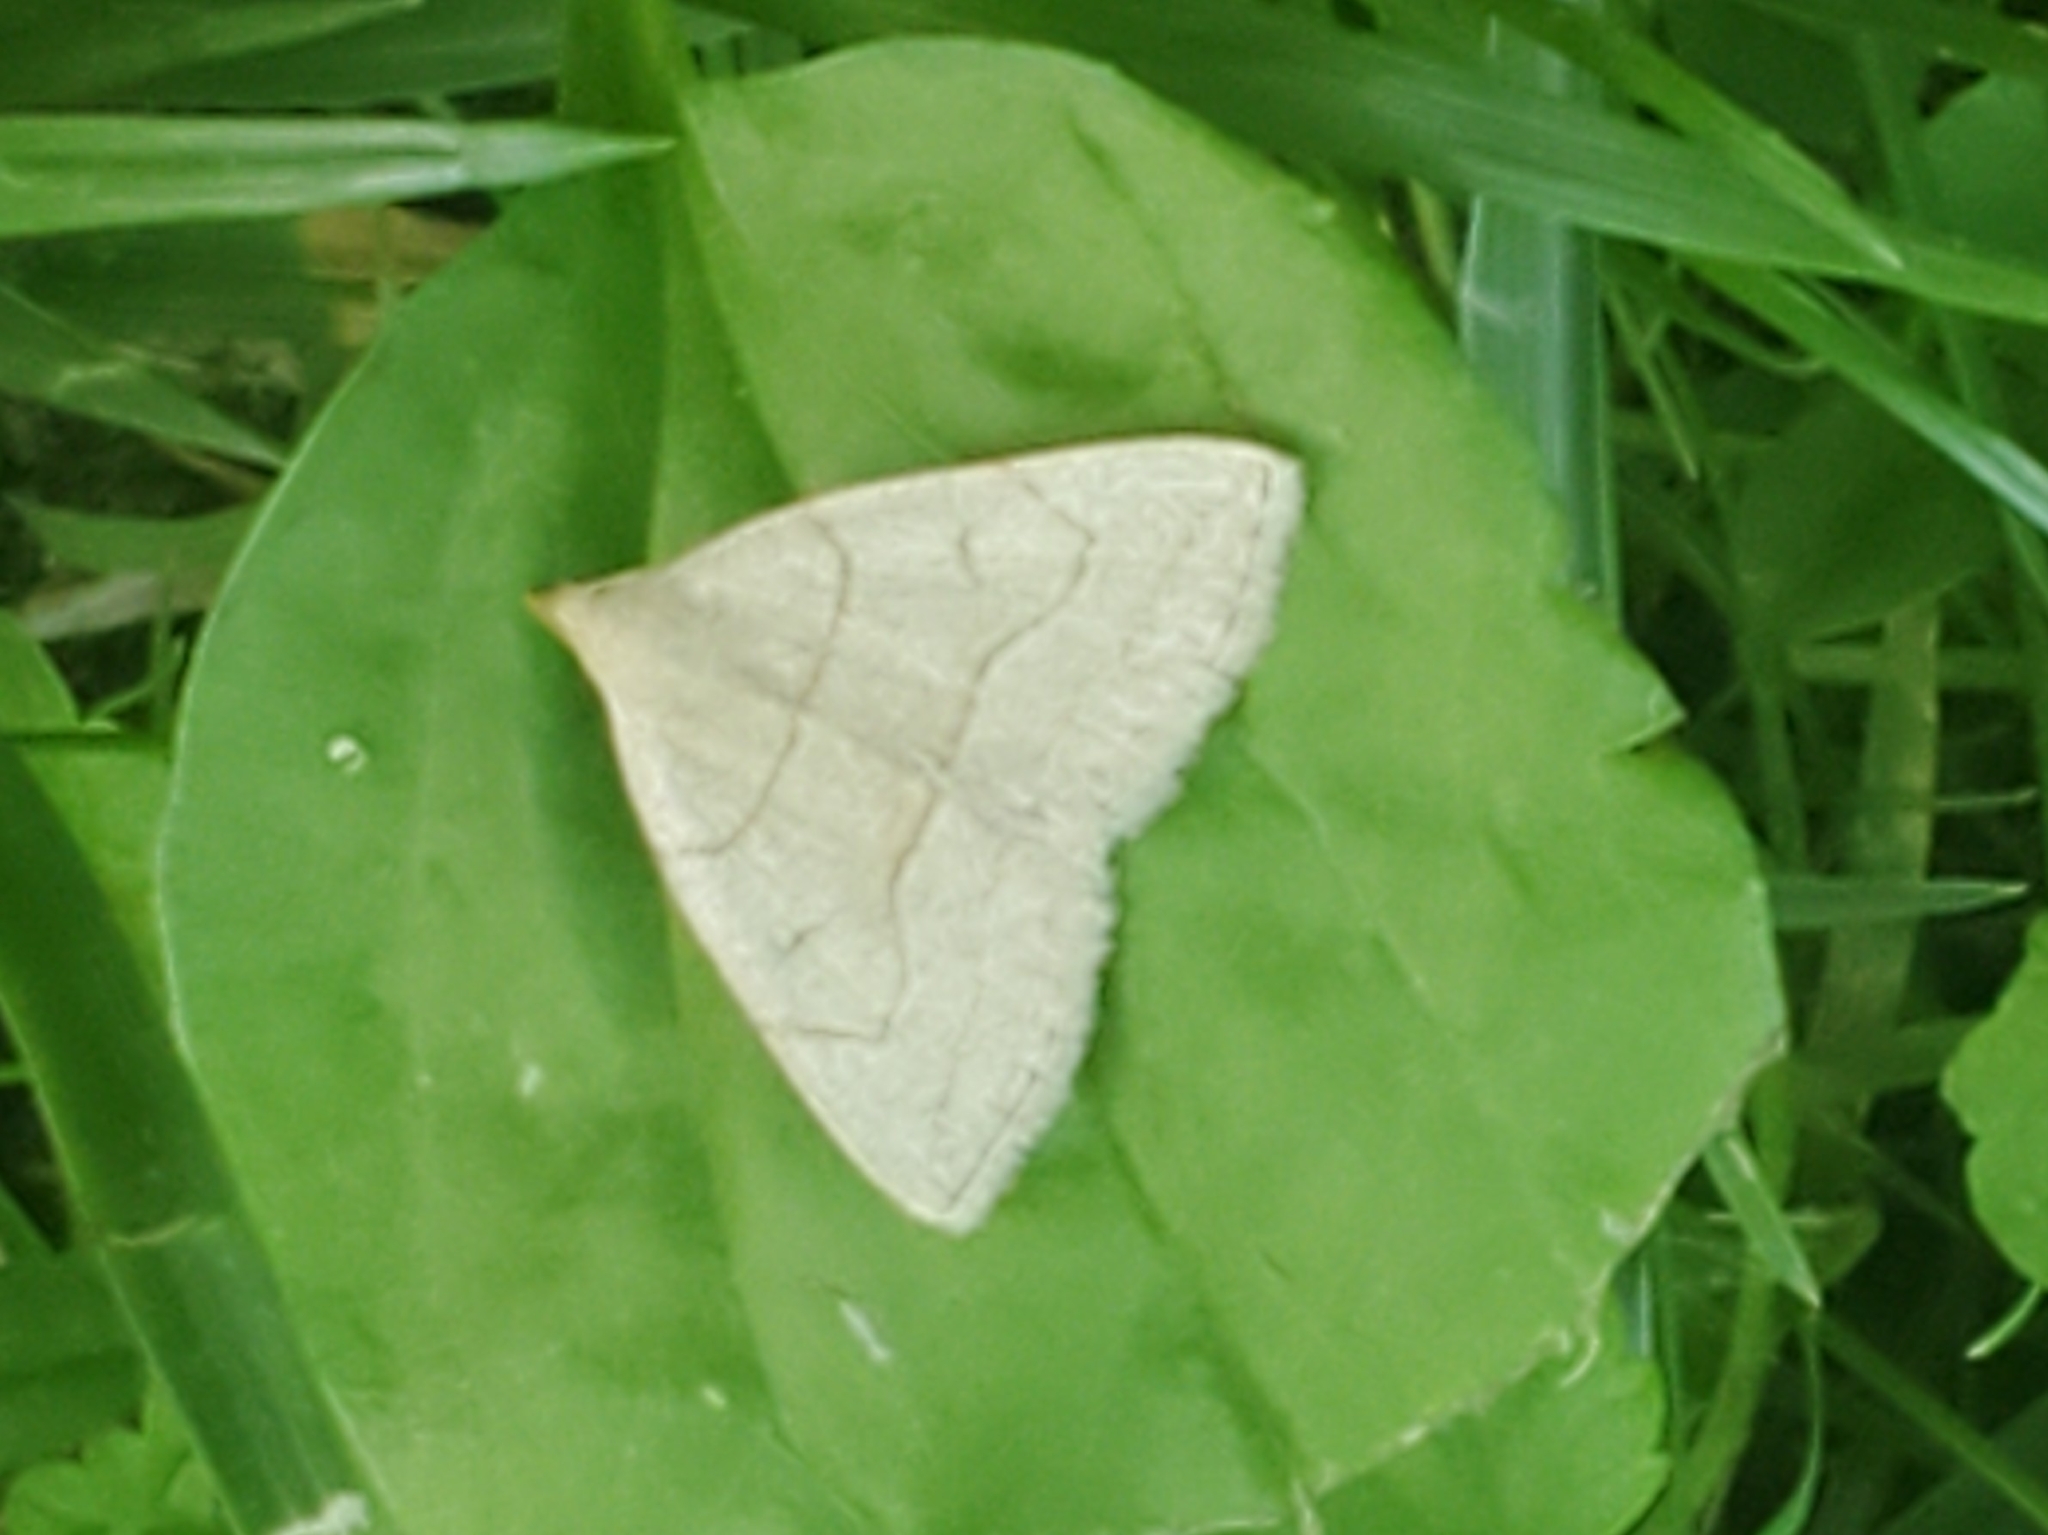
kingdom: Animalia
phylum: Arthropoda
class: Insecta
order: Lepidoptera
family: Erebidae
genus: Zanclognatha
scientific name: Zanclognatha pedipilalis
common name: Grayish fan-foot
